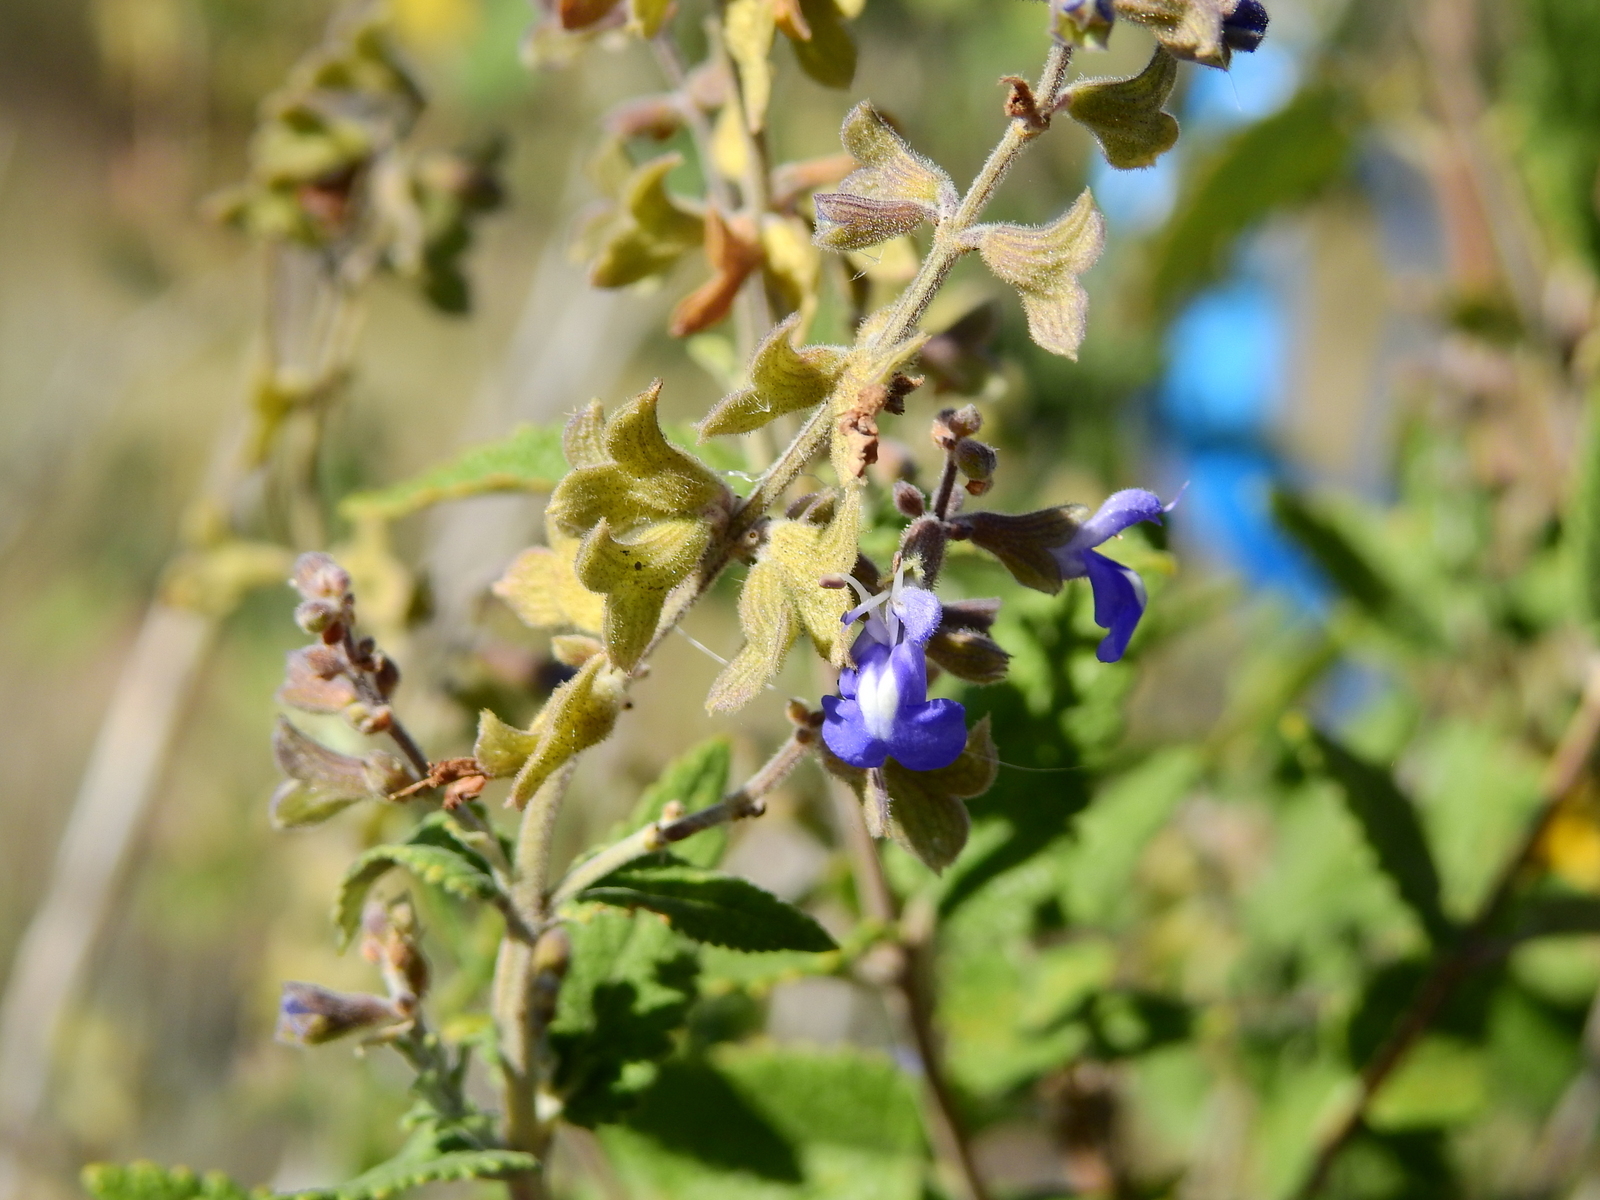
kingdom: Plantae
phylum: Tracheophyta
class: Magnoliopsida
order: Lamiales
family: Lamiaceae
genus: Salvia
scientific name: Salvia cuspidata
